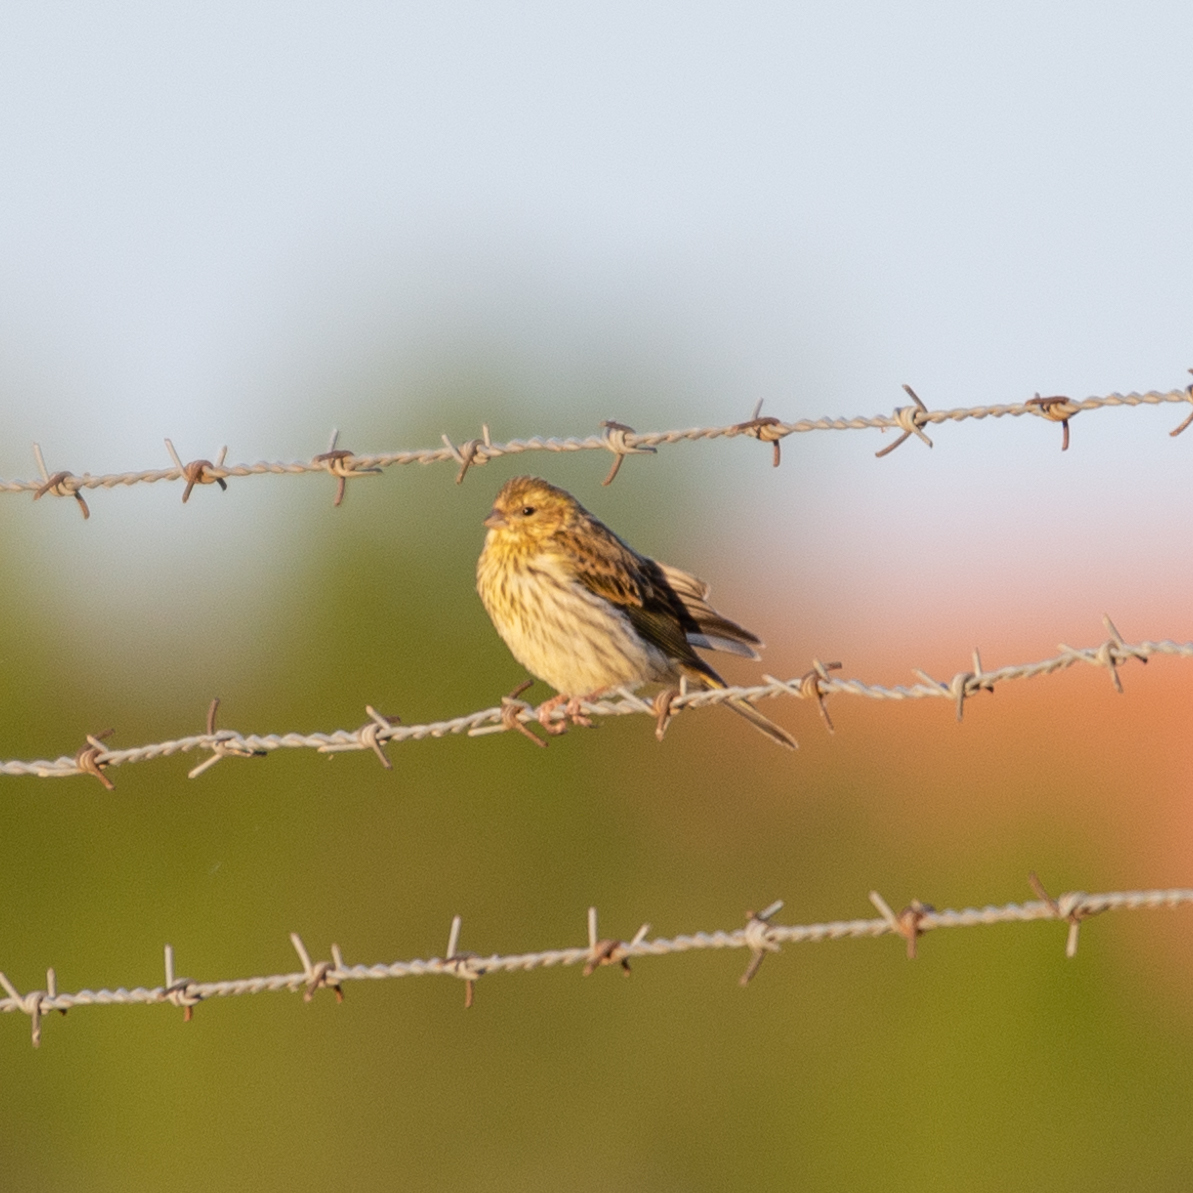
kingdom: Animalia
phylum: Chordata
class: Aves
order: Passeriformes
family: Fringillidae
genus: Serinus
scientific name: Serinus serinus
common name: European serin
